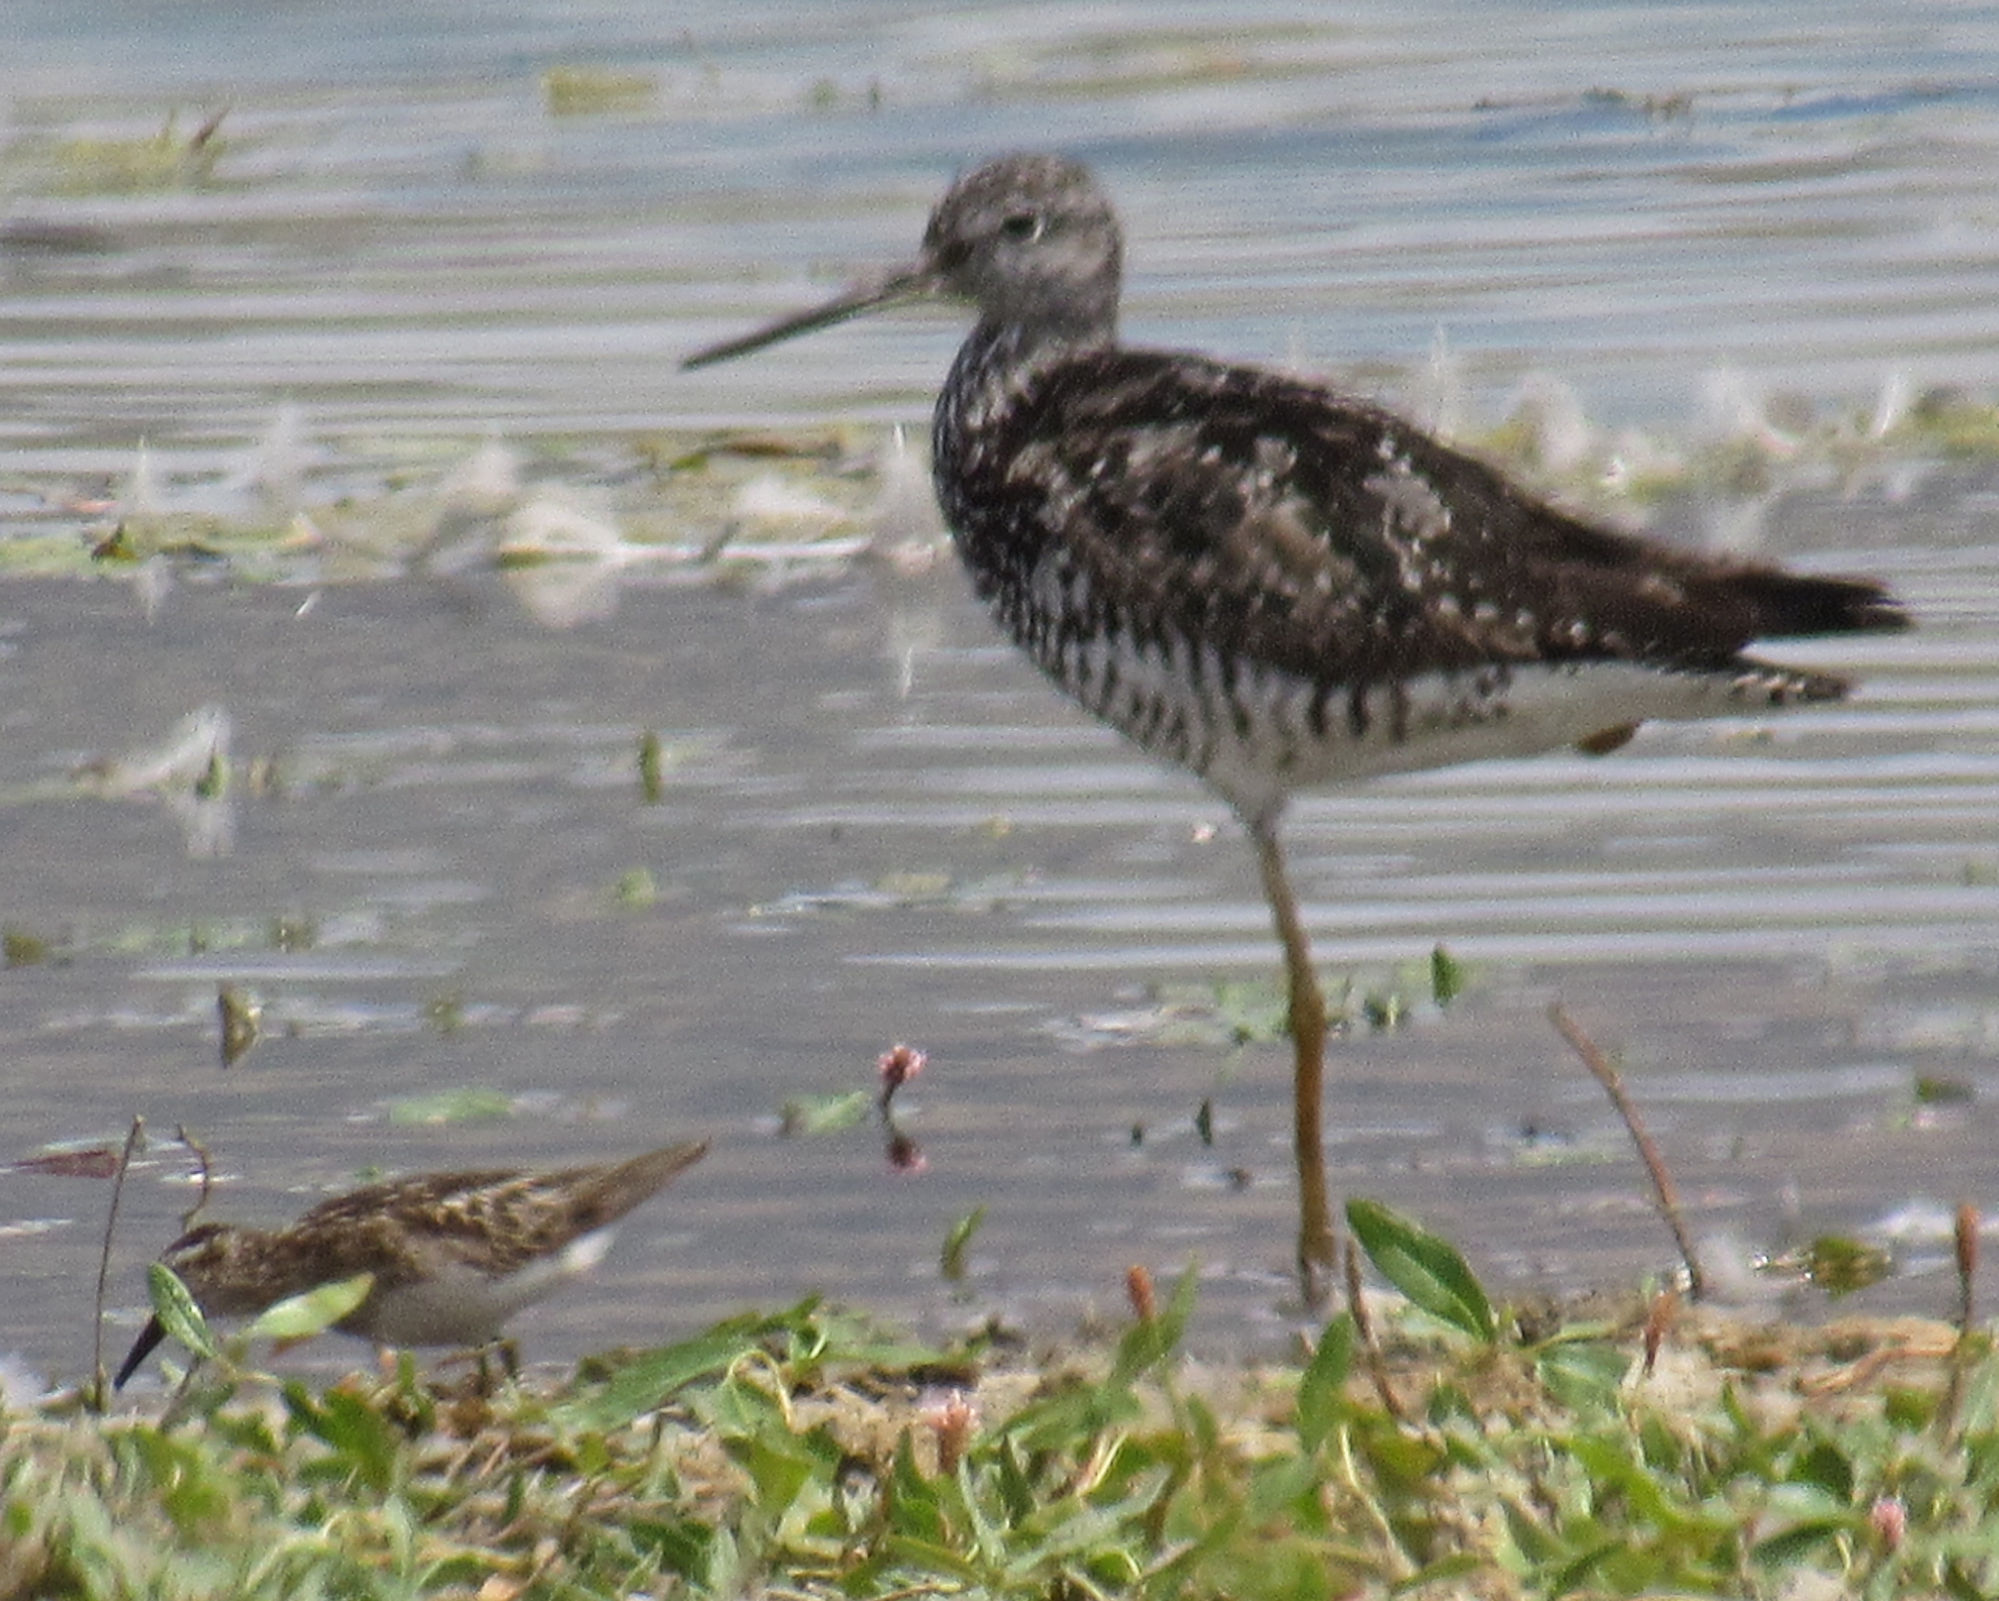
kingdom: Animalia
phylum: Chordata
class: Aves
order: Charadriiformes
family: Scolopacidae
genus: Calidris
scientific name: Calidris minutilla
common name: Least sandpiper
